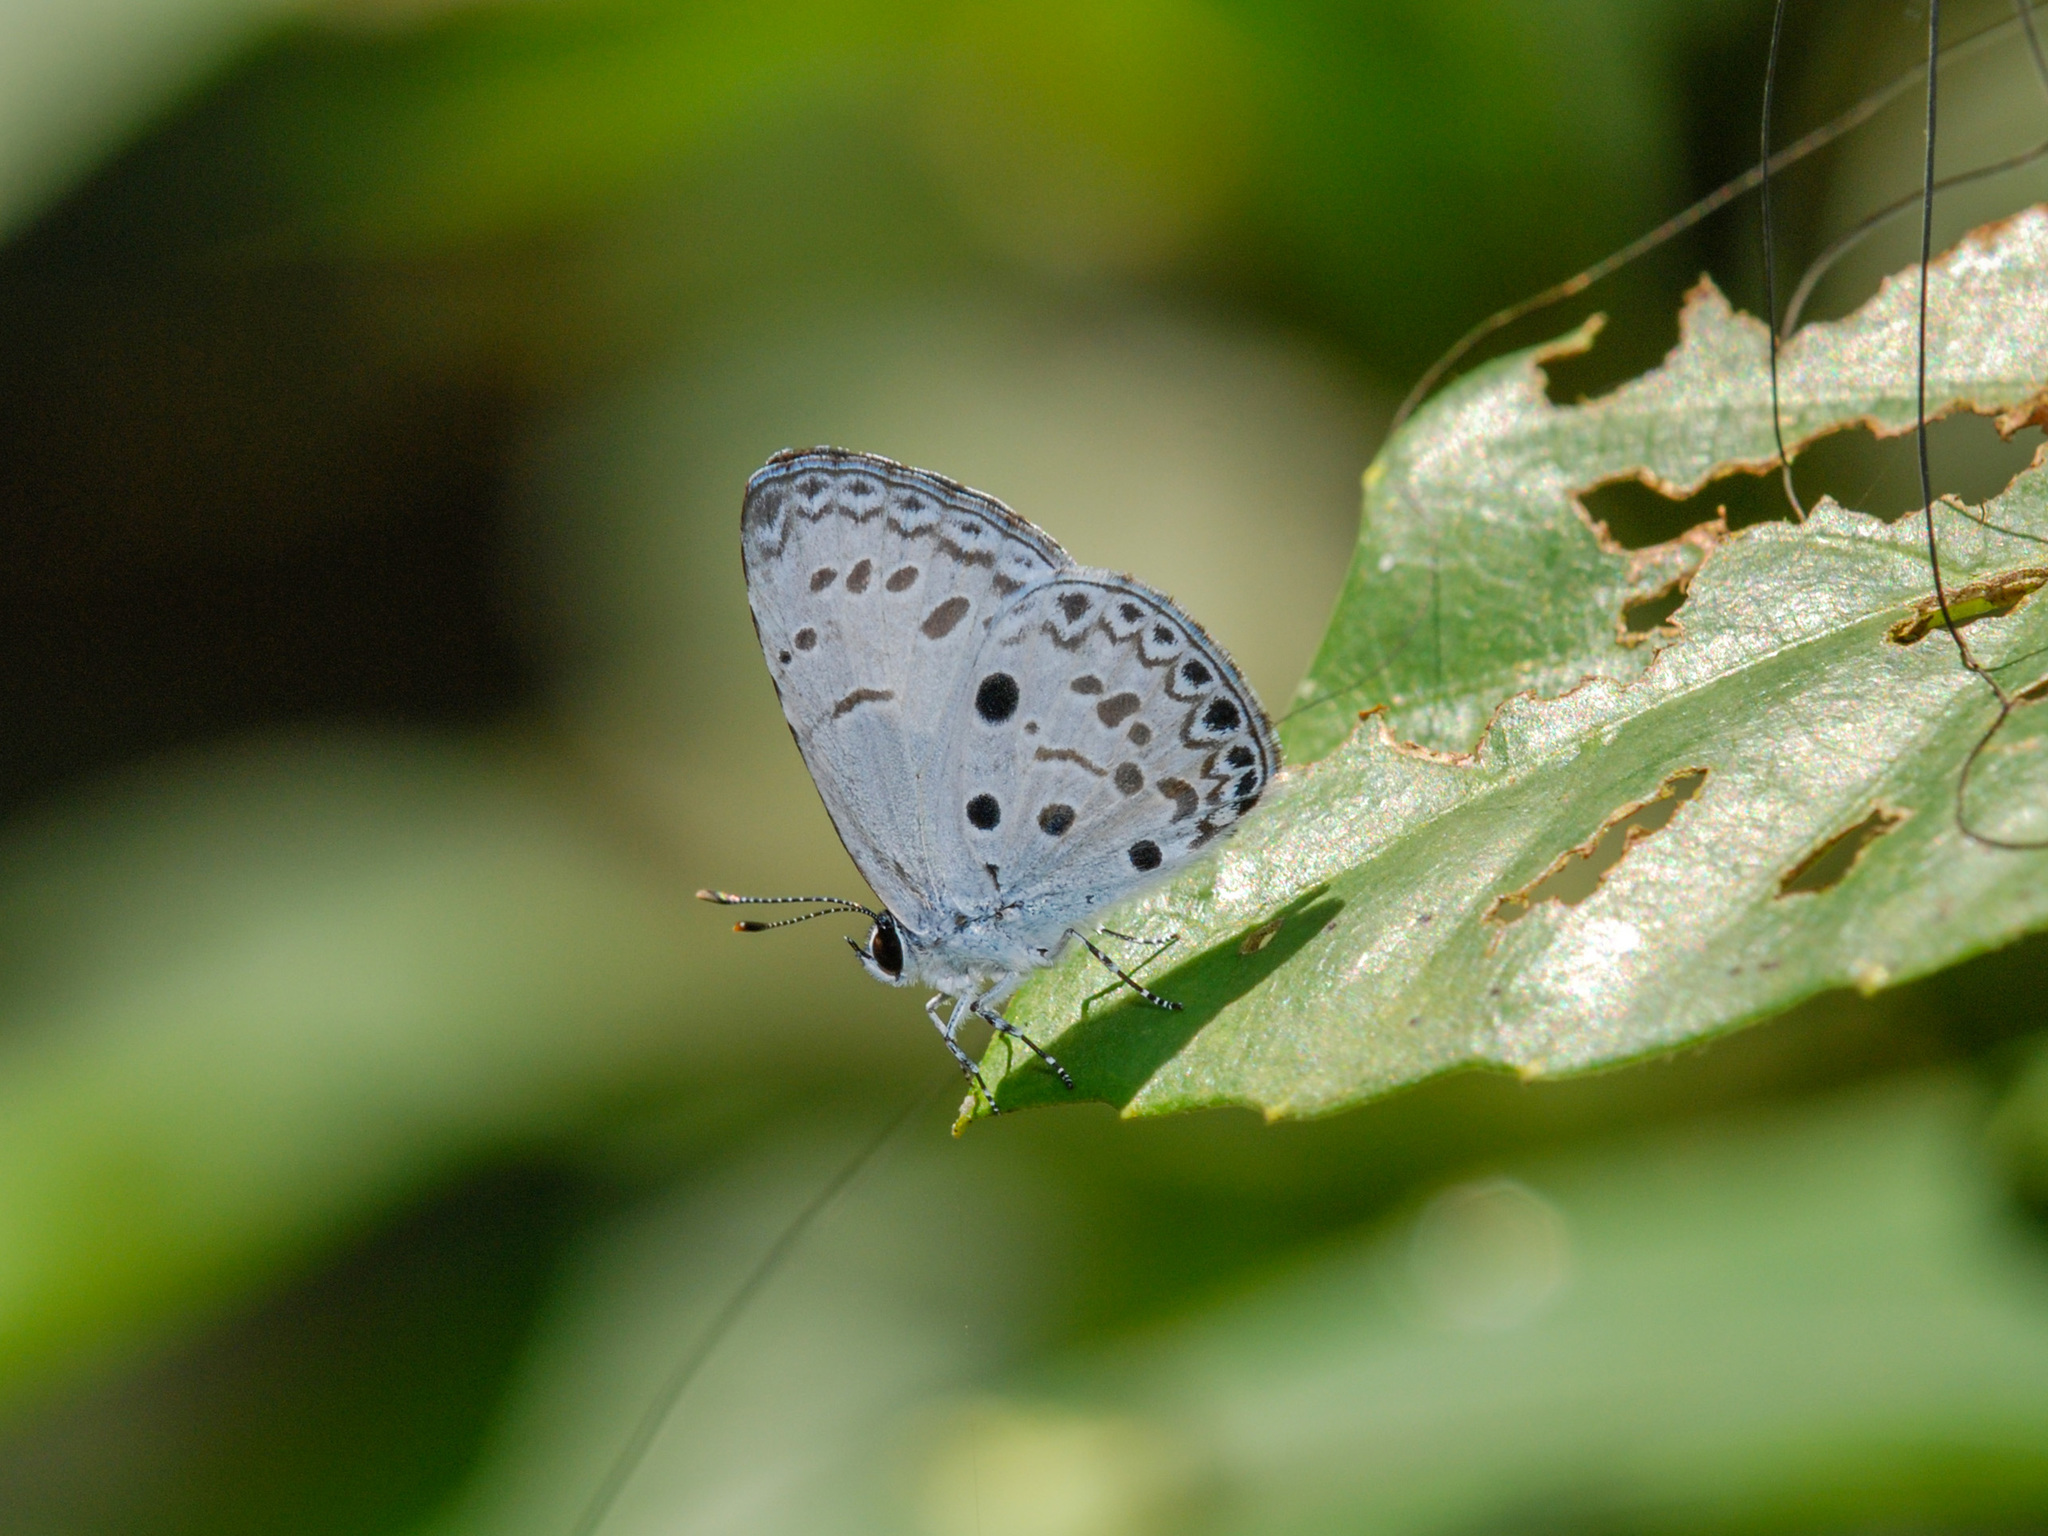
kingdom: Animalia
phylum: Arthropoda
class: Insecta
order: Lepidoptera
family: Lycaenidae
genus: Acytolepis
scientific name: Acytolepis puspa
